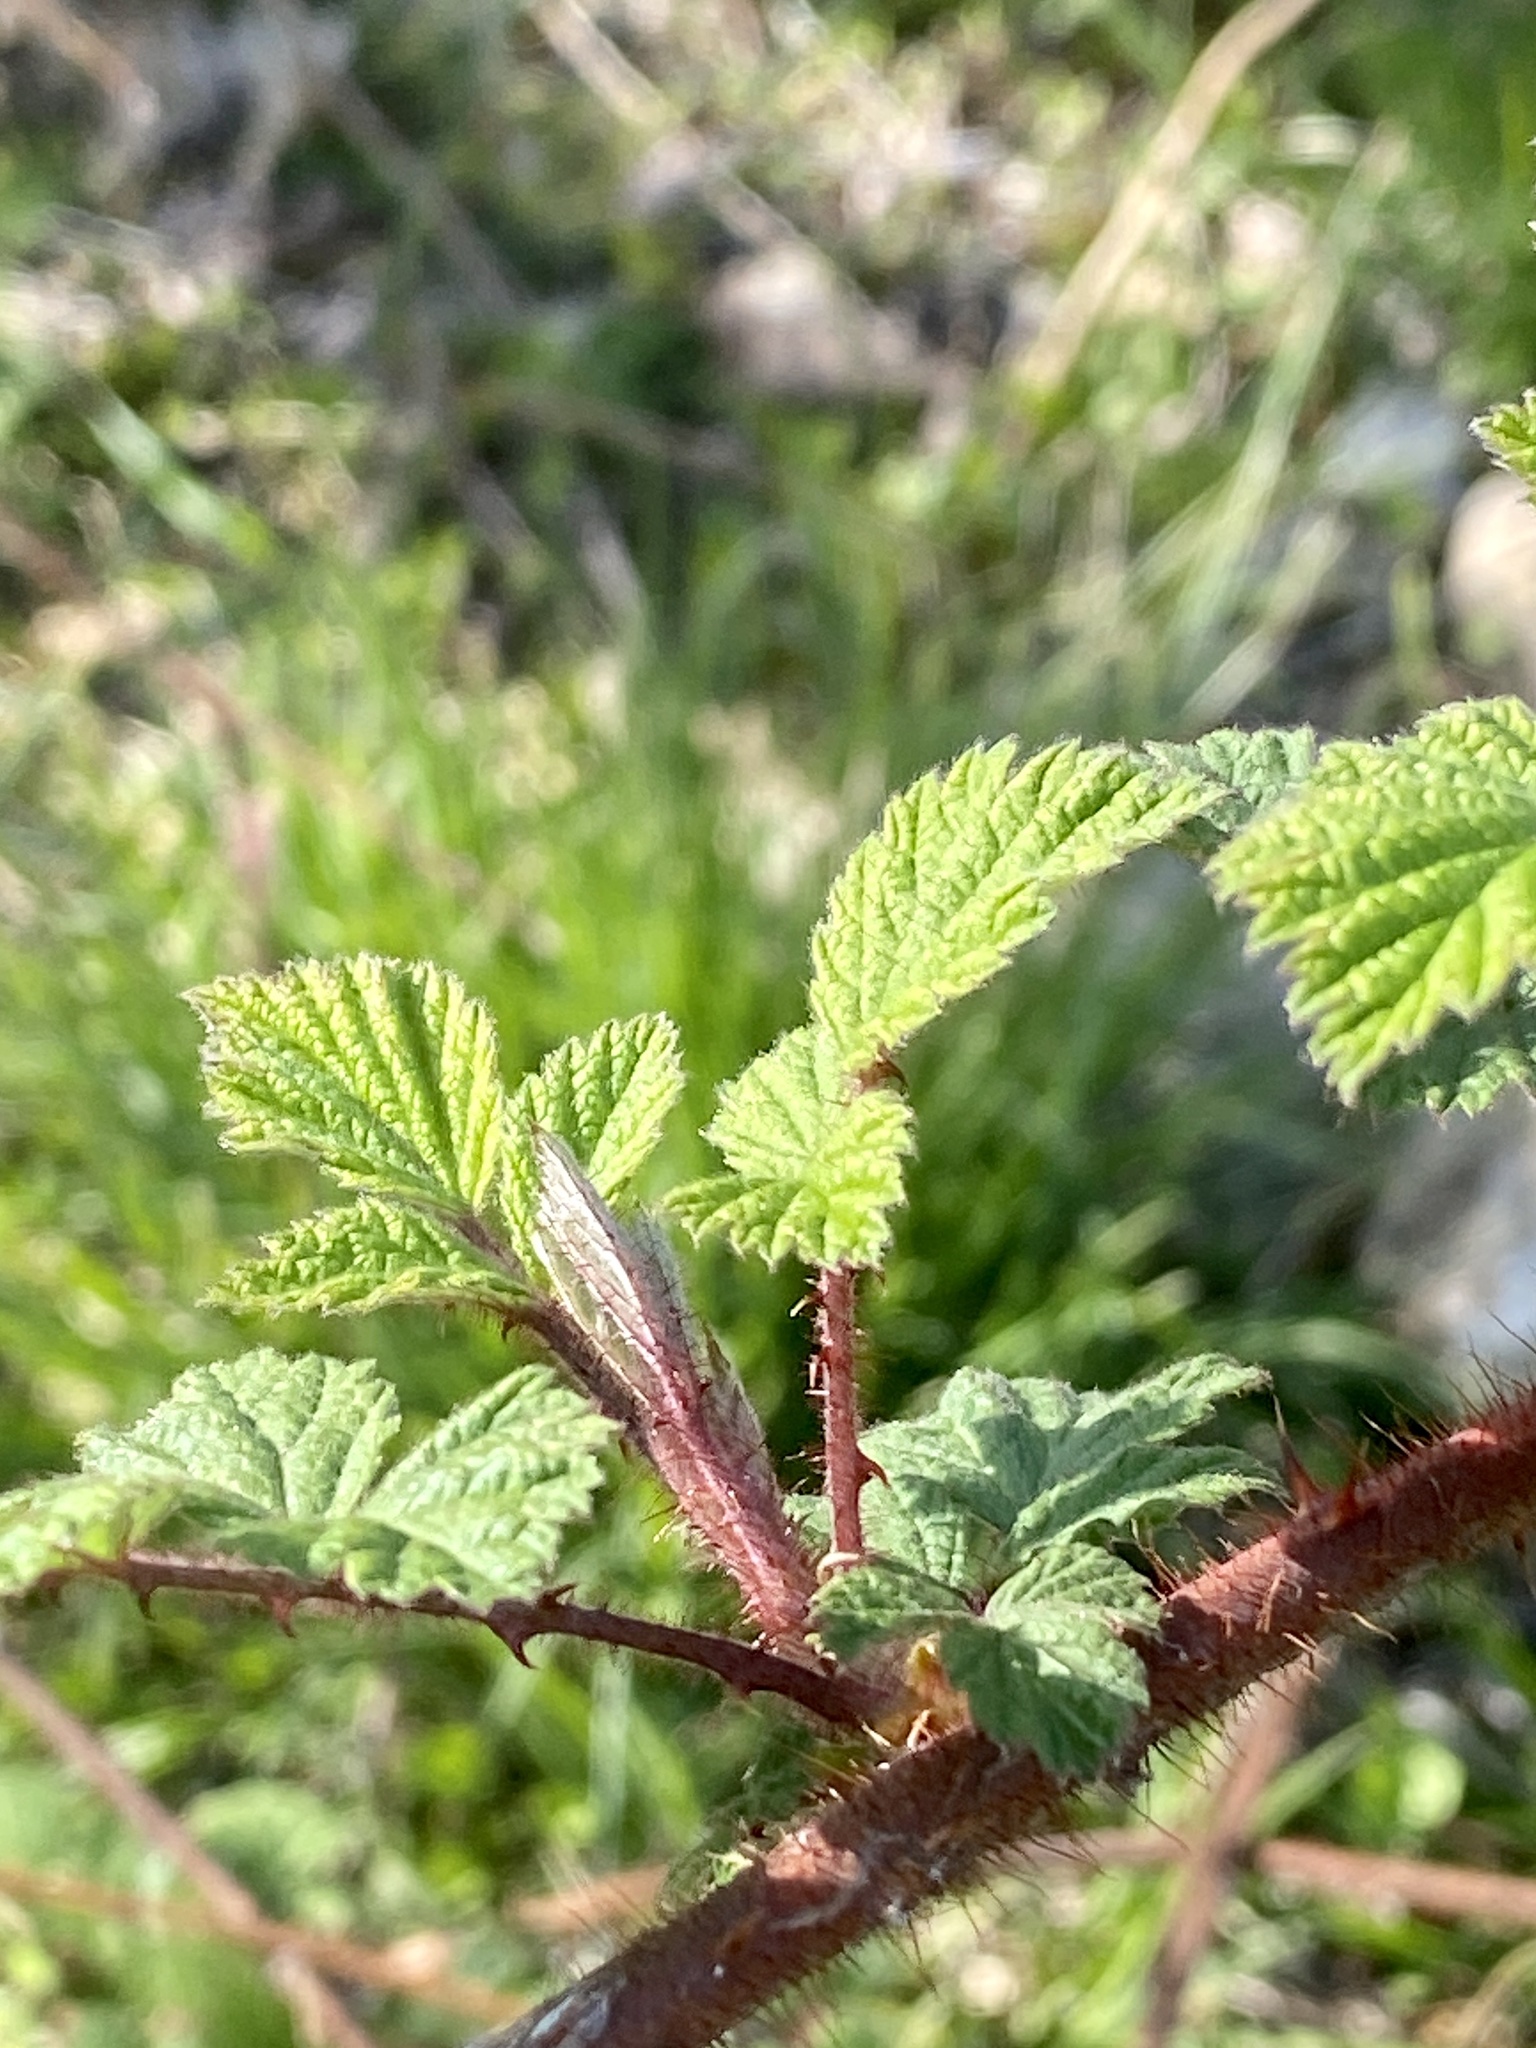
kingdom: Plantae
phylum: Tracheophyta
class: Magnoliopsida
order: Rosales
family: Rosaceae
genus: Rubus
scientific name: Rubus phoenicolasius
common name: Japanese wineberry
